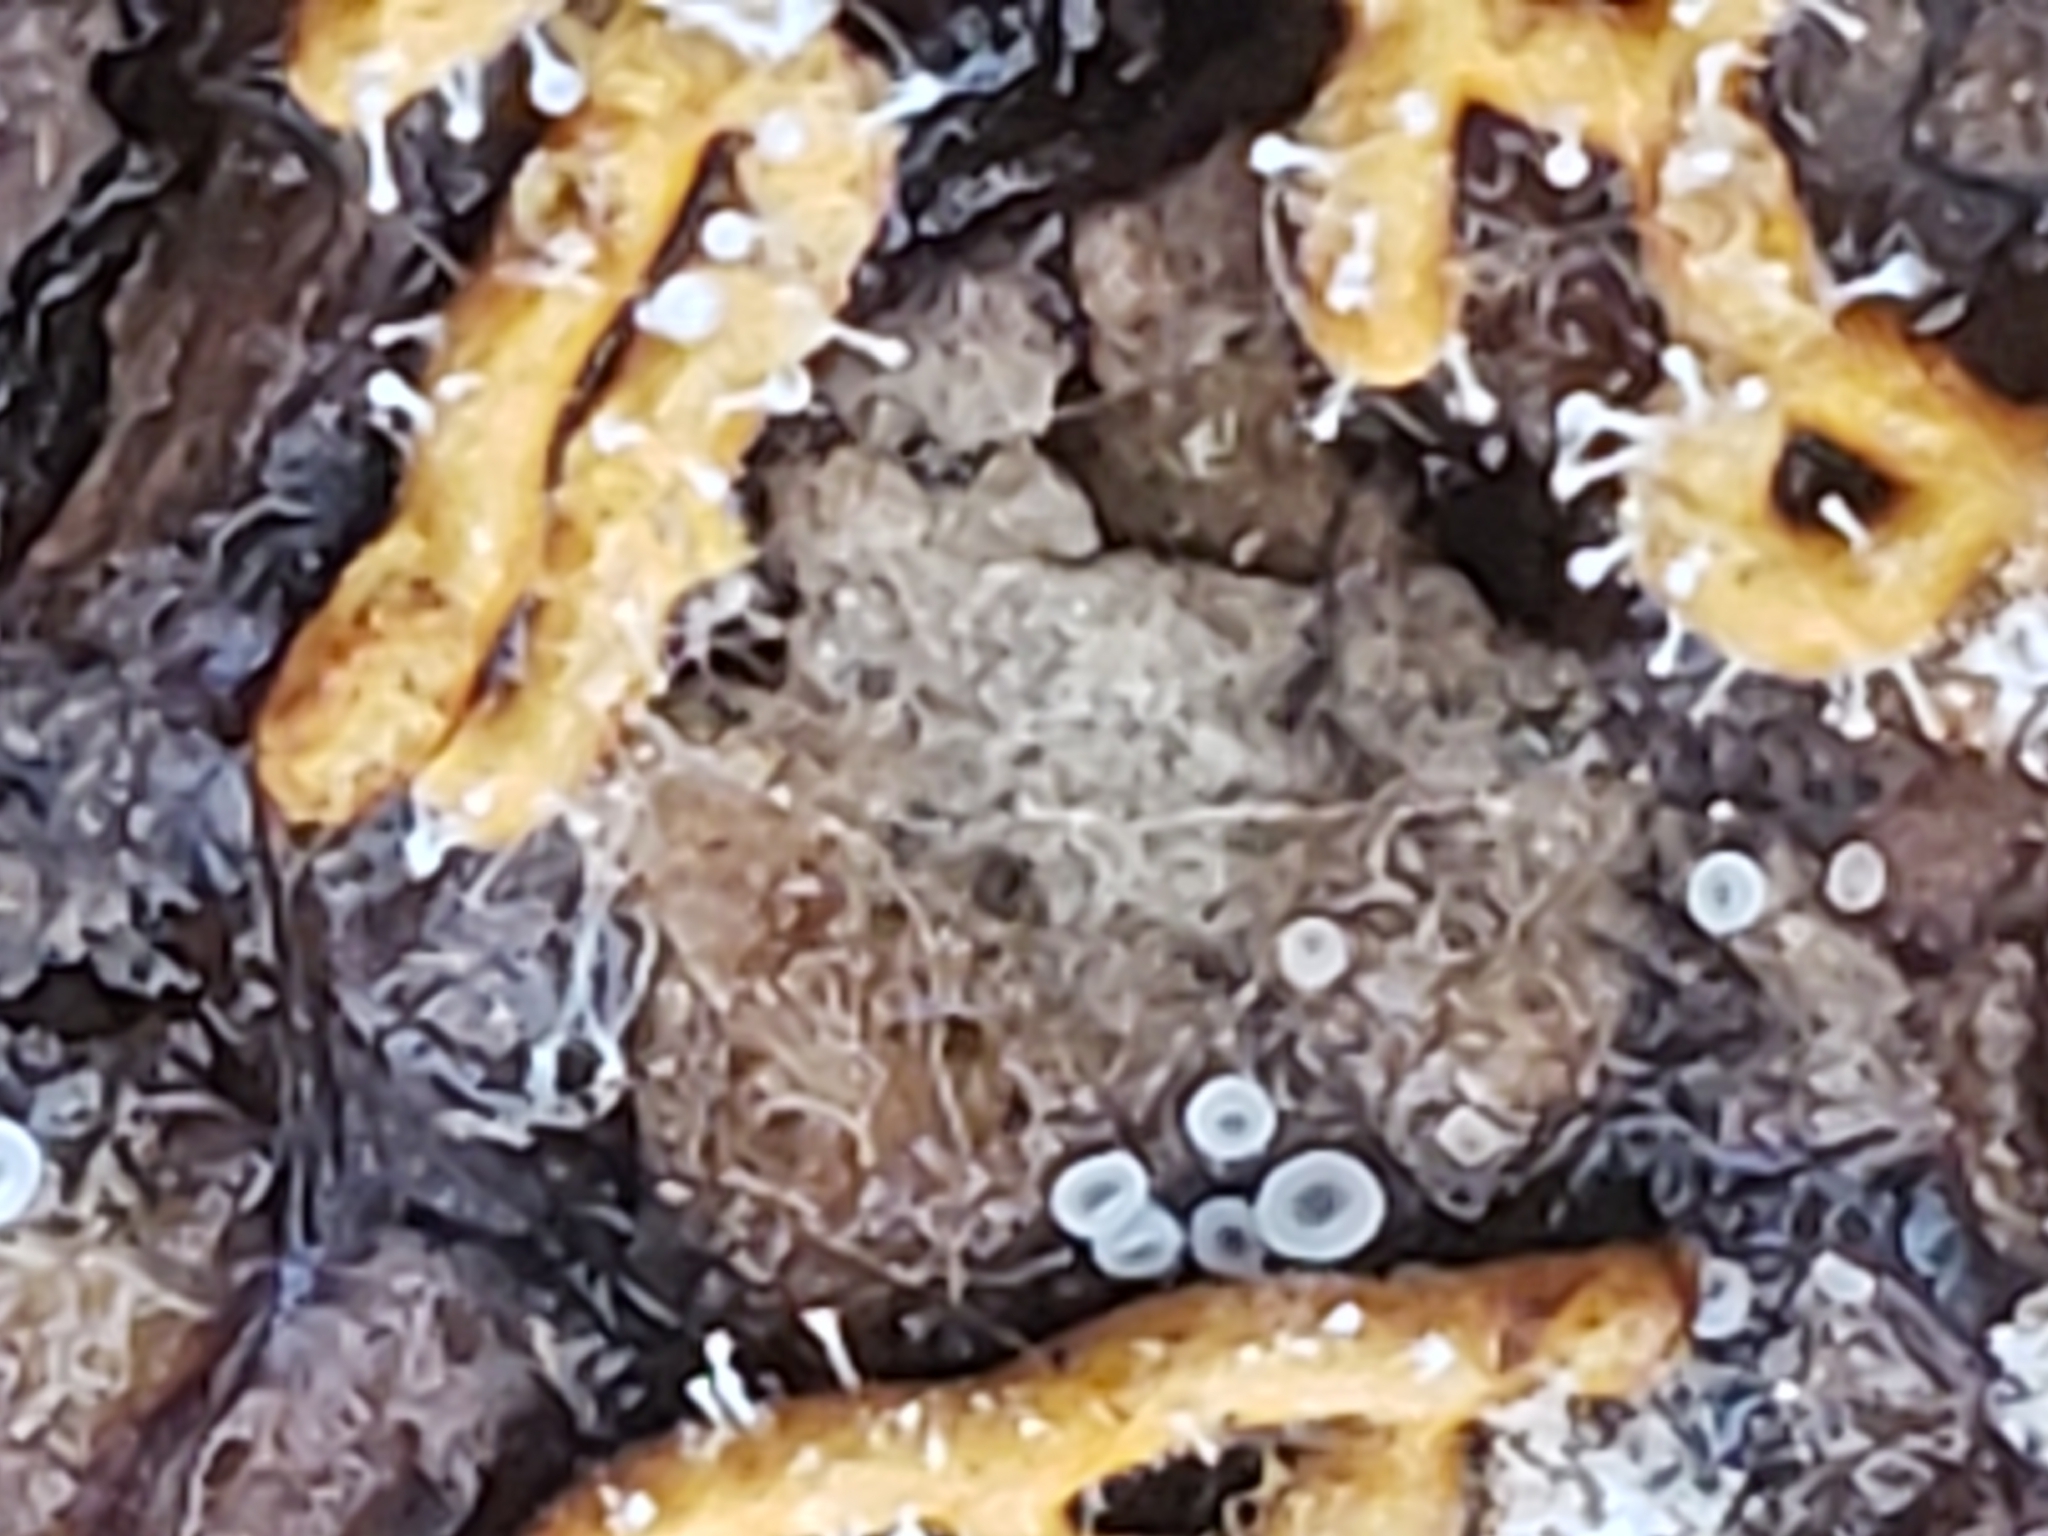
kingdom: Fungi
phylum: Ascomycota
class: Sordariomycetes
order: Hypocreales
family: Ophiocordycipitaceae
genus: Polycephalomyces
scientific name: Polycephalomyces tomentosus
